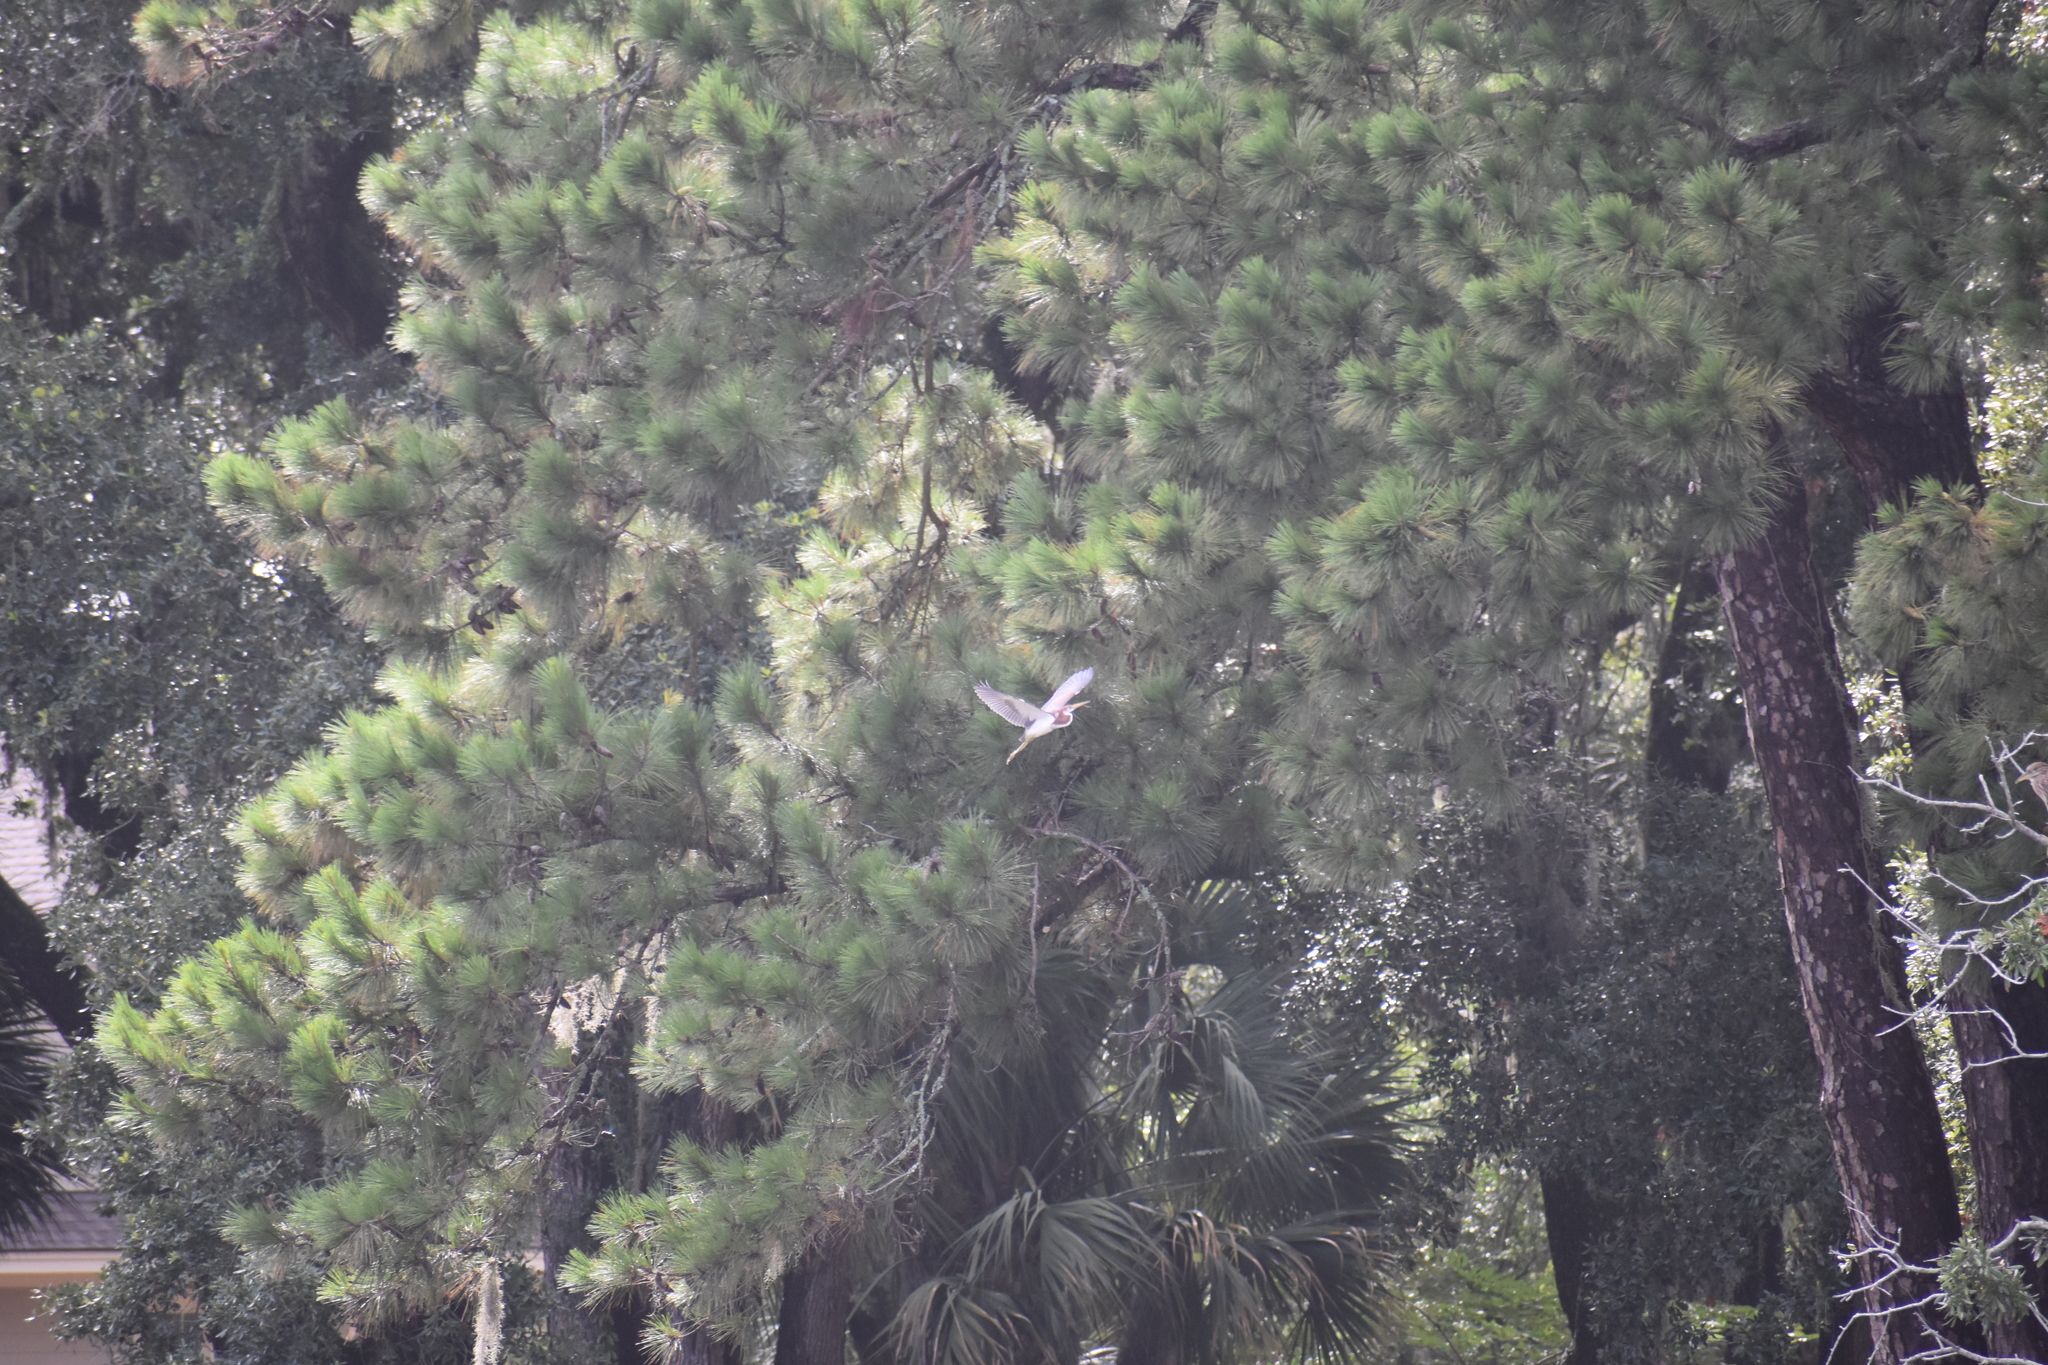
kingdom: Animalia
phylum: Chordata
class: Aves
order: Pelecaniformes
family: Ardeidae
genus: Egretta
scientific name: Egretta tricolor
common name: Tricolored heron
